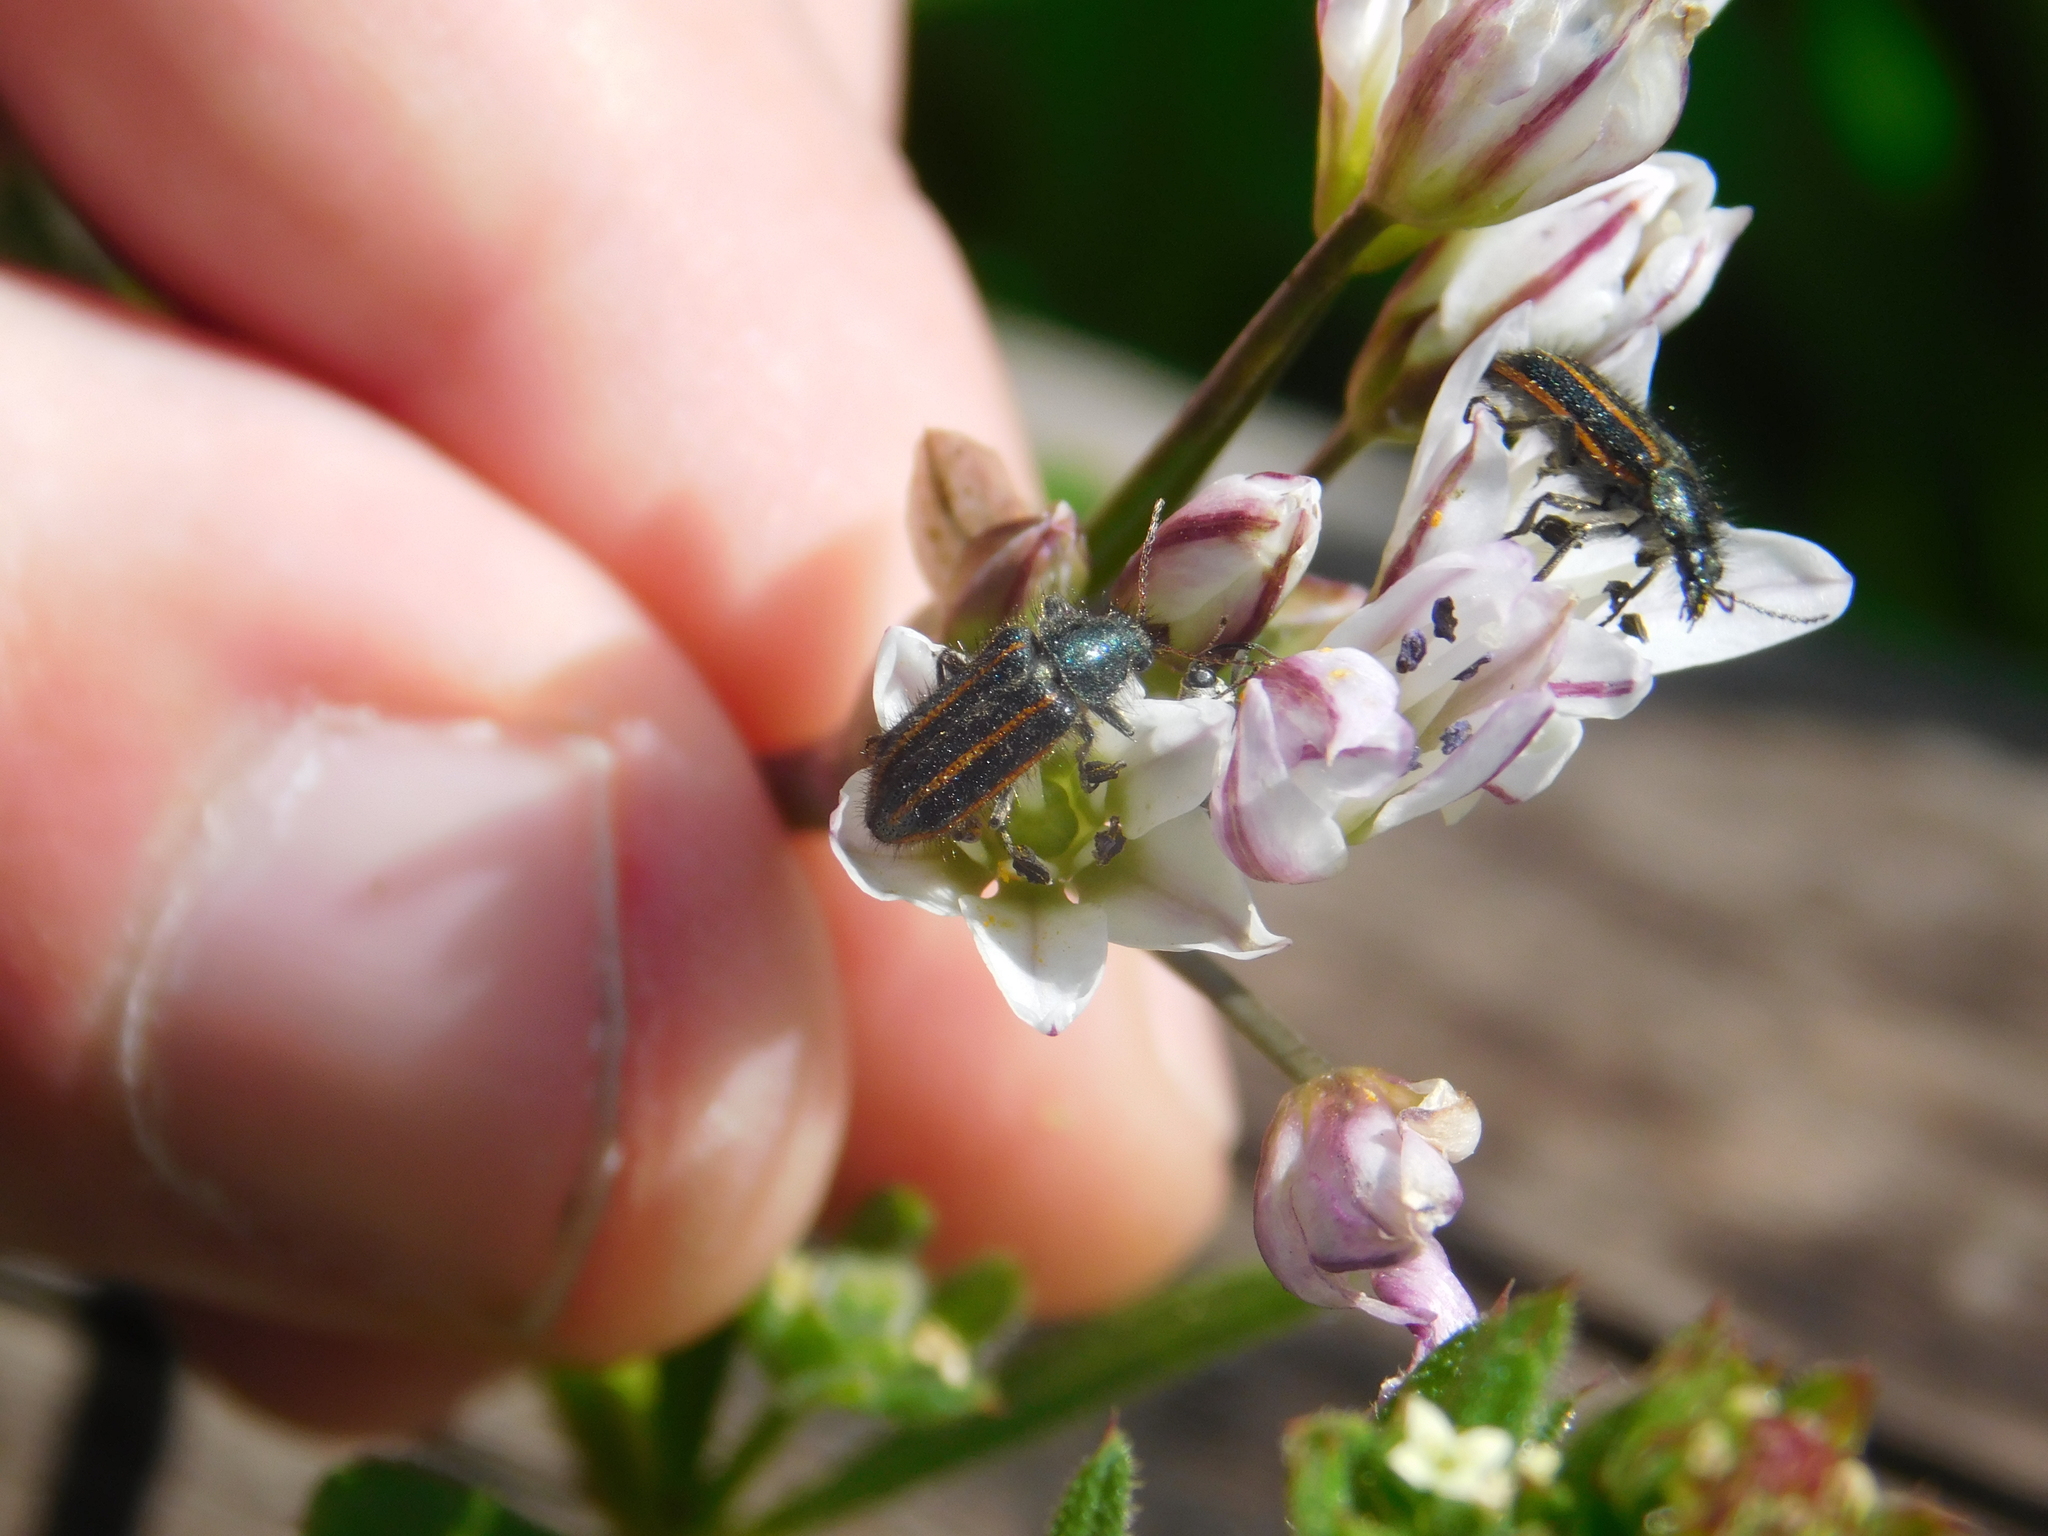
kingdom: Animalia
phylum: Arthropoda
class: Insecta
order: Coleoptera
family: Melyridae
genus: Astylus
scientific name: Astylus
